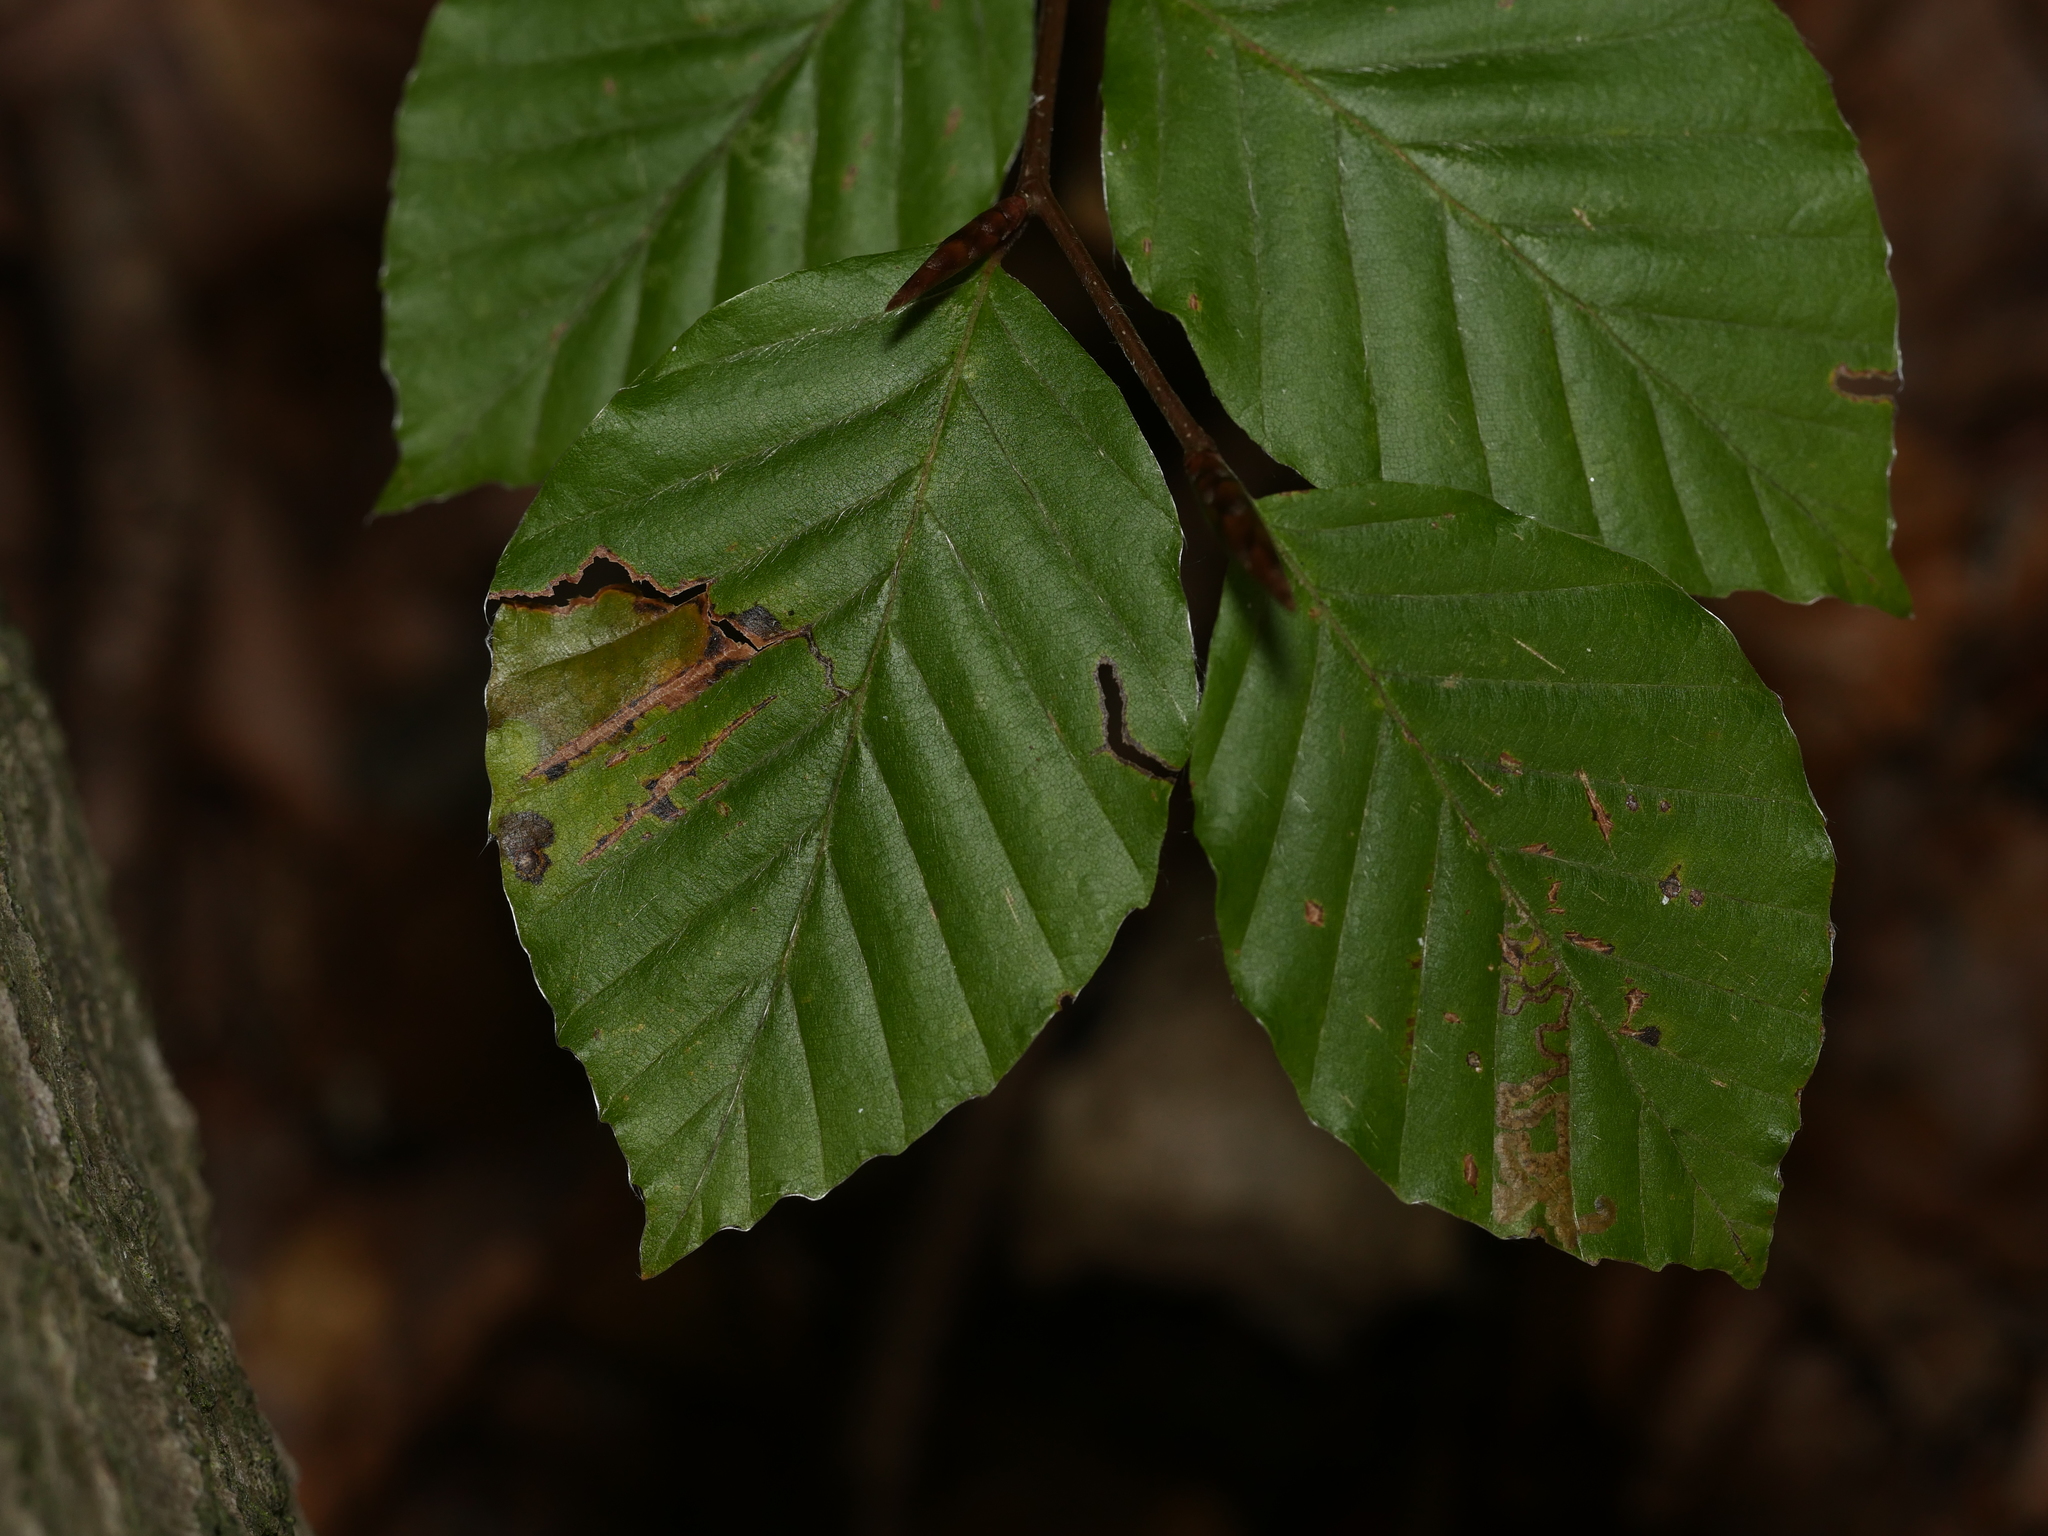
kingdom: Plantae
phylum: Tracheophyta
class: Magnoliopsida
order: Fagales
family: Fagaceae
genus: Fagus
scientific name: Fagus sylvatica
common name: Beech
